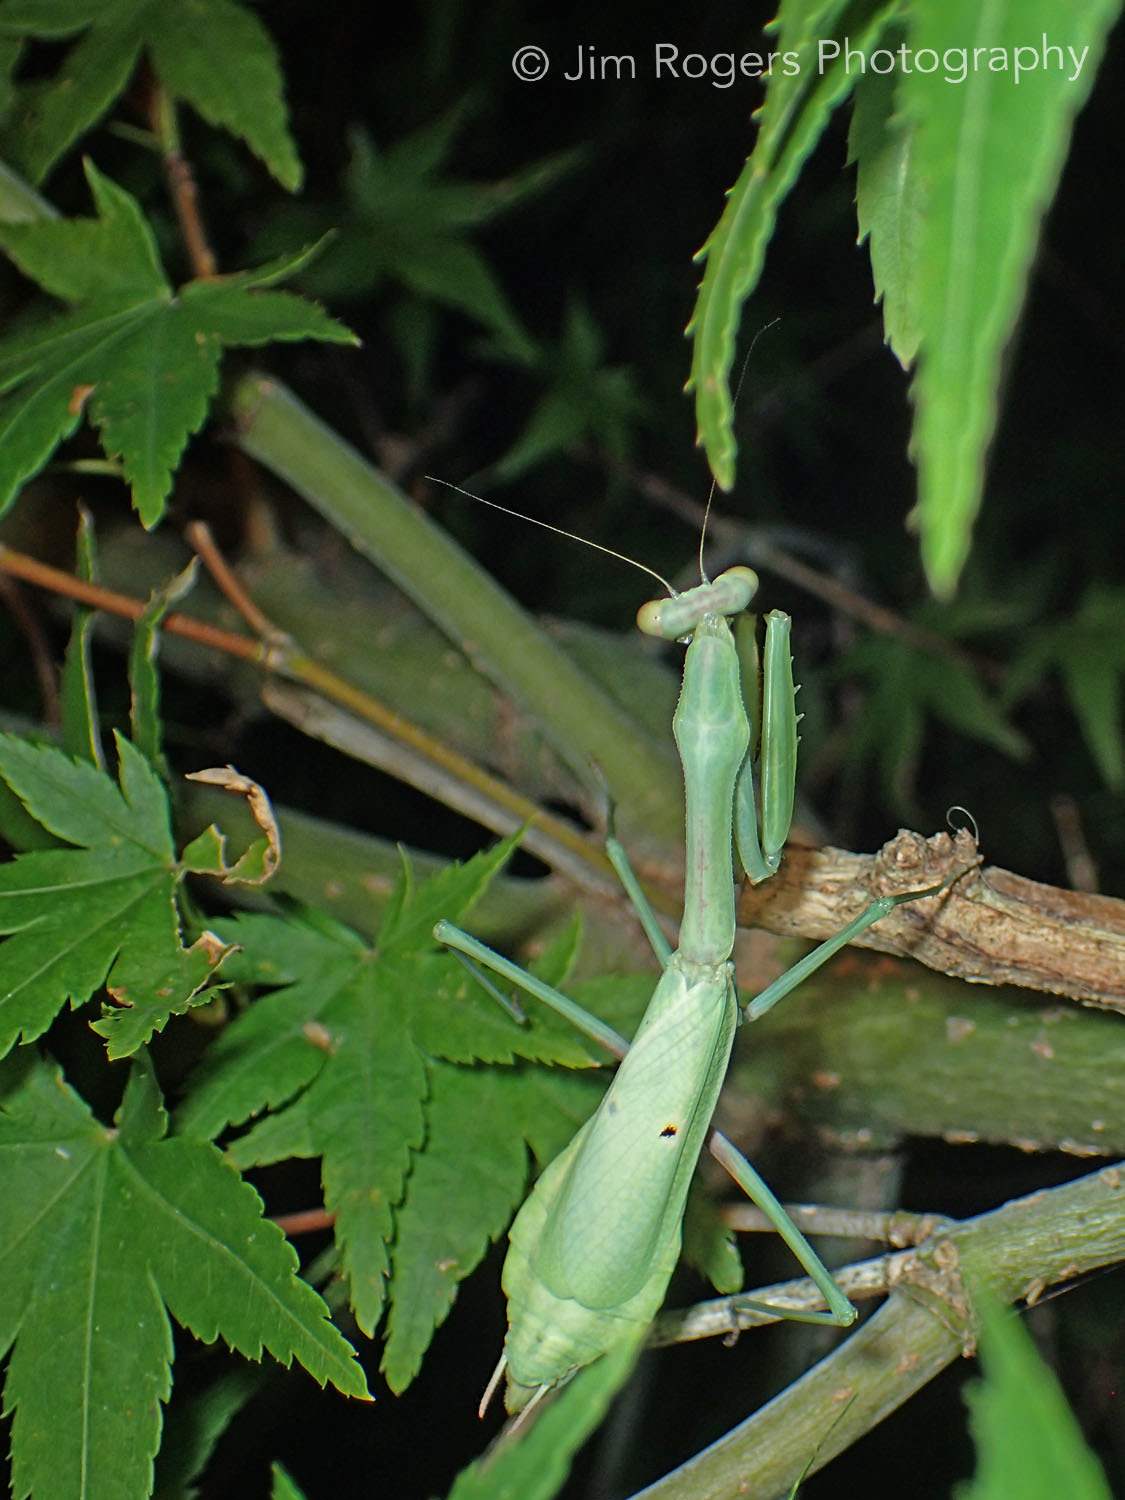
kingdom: Animalia
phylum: Arthropoda
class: Insecta
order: Mantodea
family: Mantidae
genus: Stagmomantis
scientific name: Stagmomantis carolina
